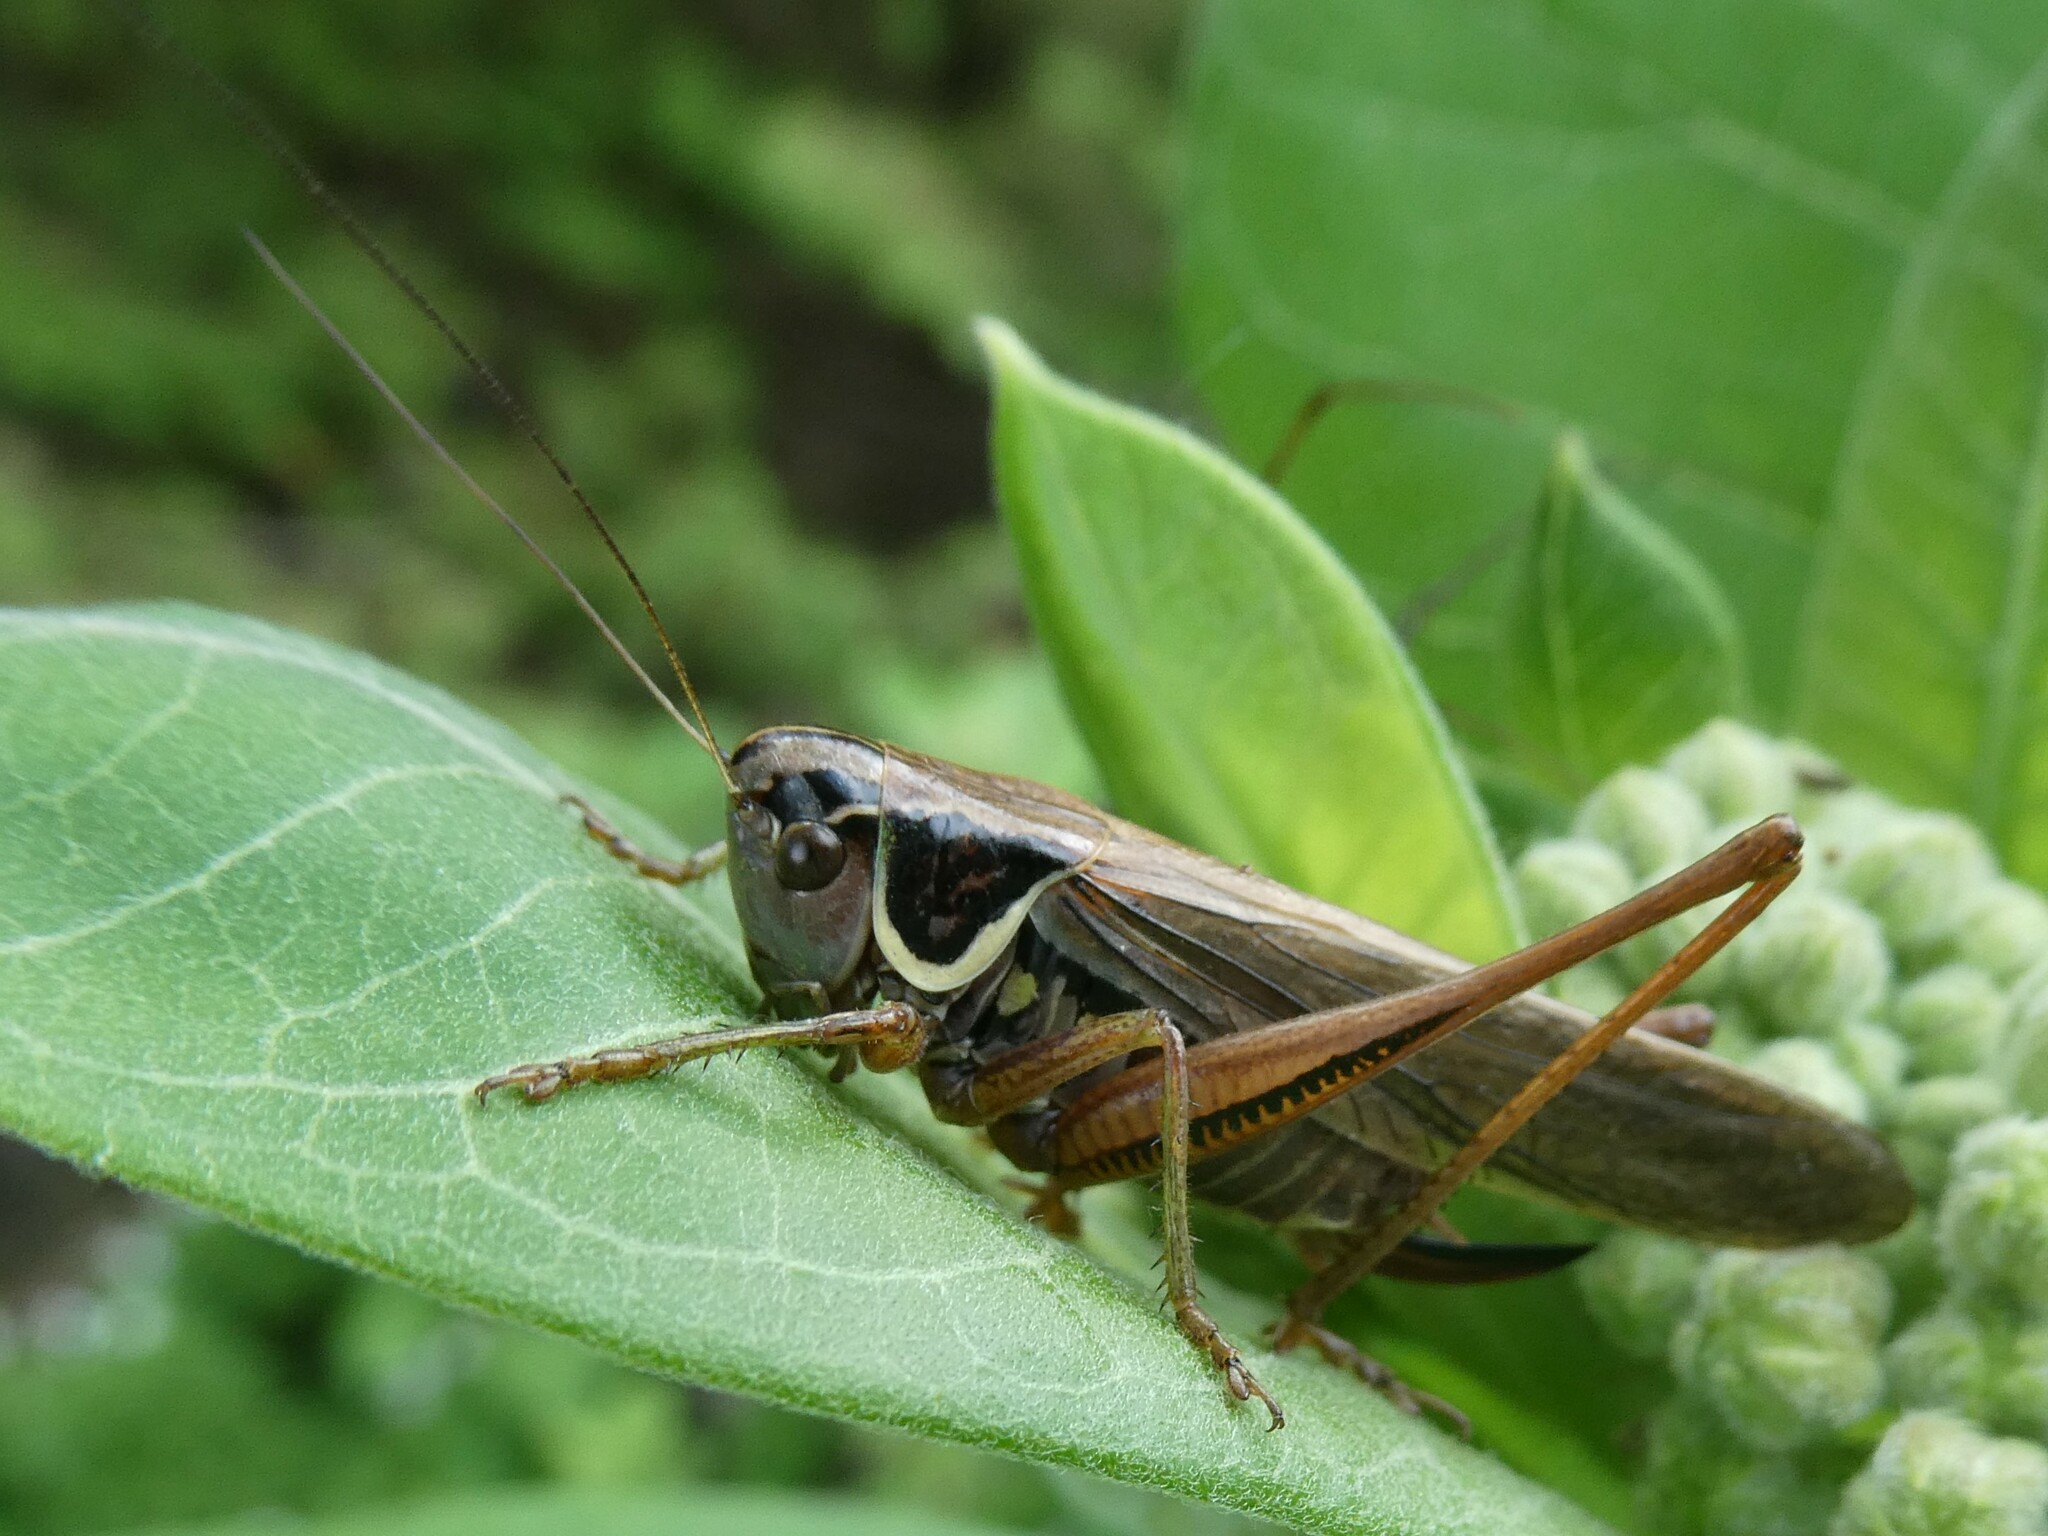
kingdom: Animalia
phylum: Arthropoda
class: Insecta
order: Orthoptera
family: Tettigoniidae
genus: Roeseliana
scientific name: Roeseliana roeselii
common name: Roesel's bush cricket
